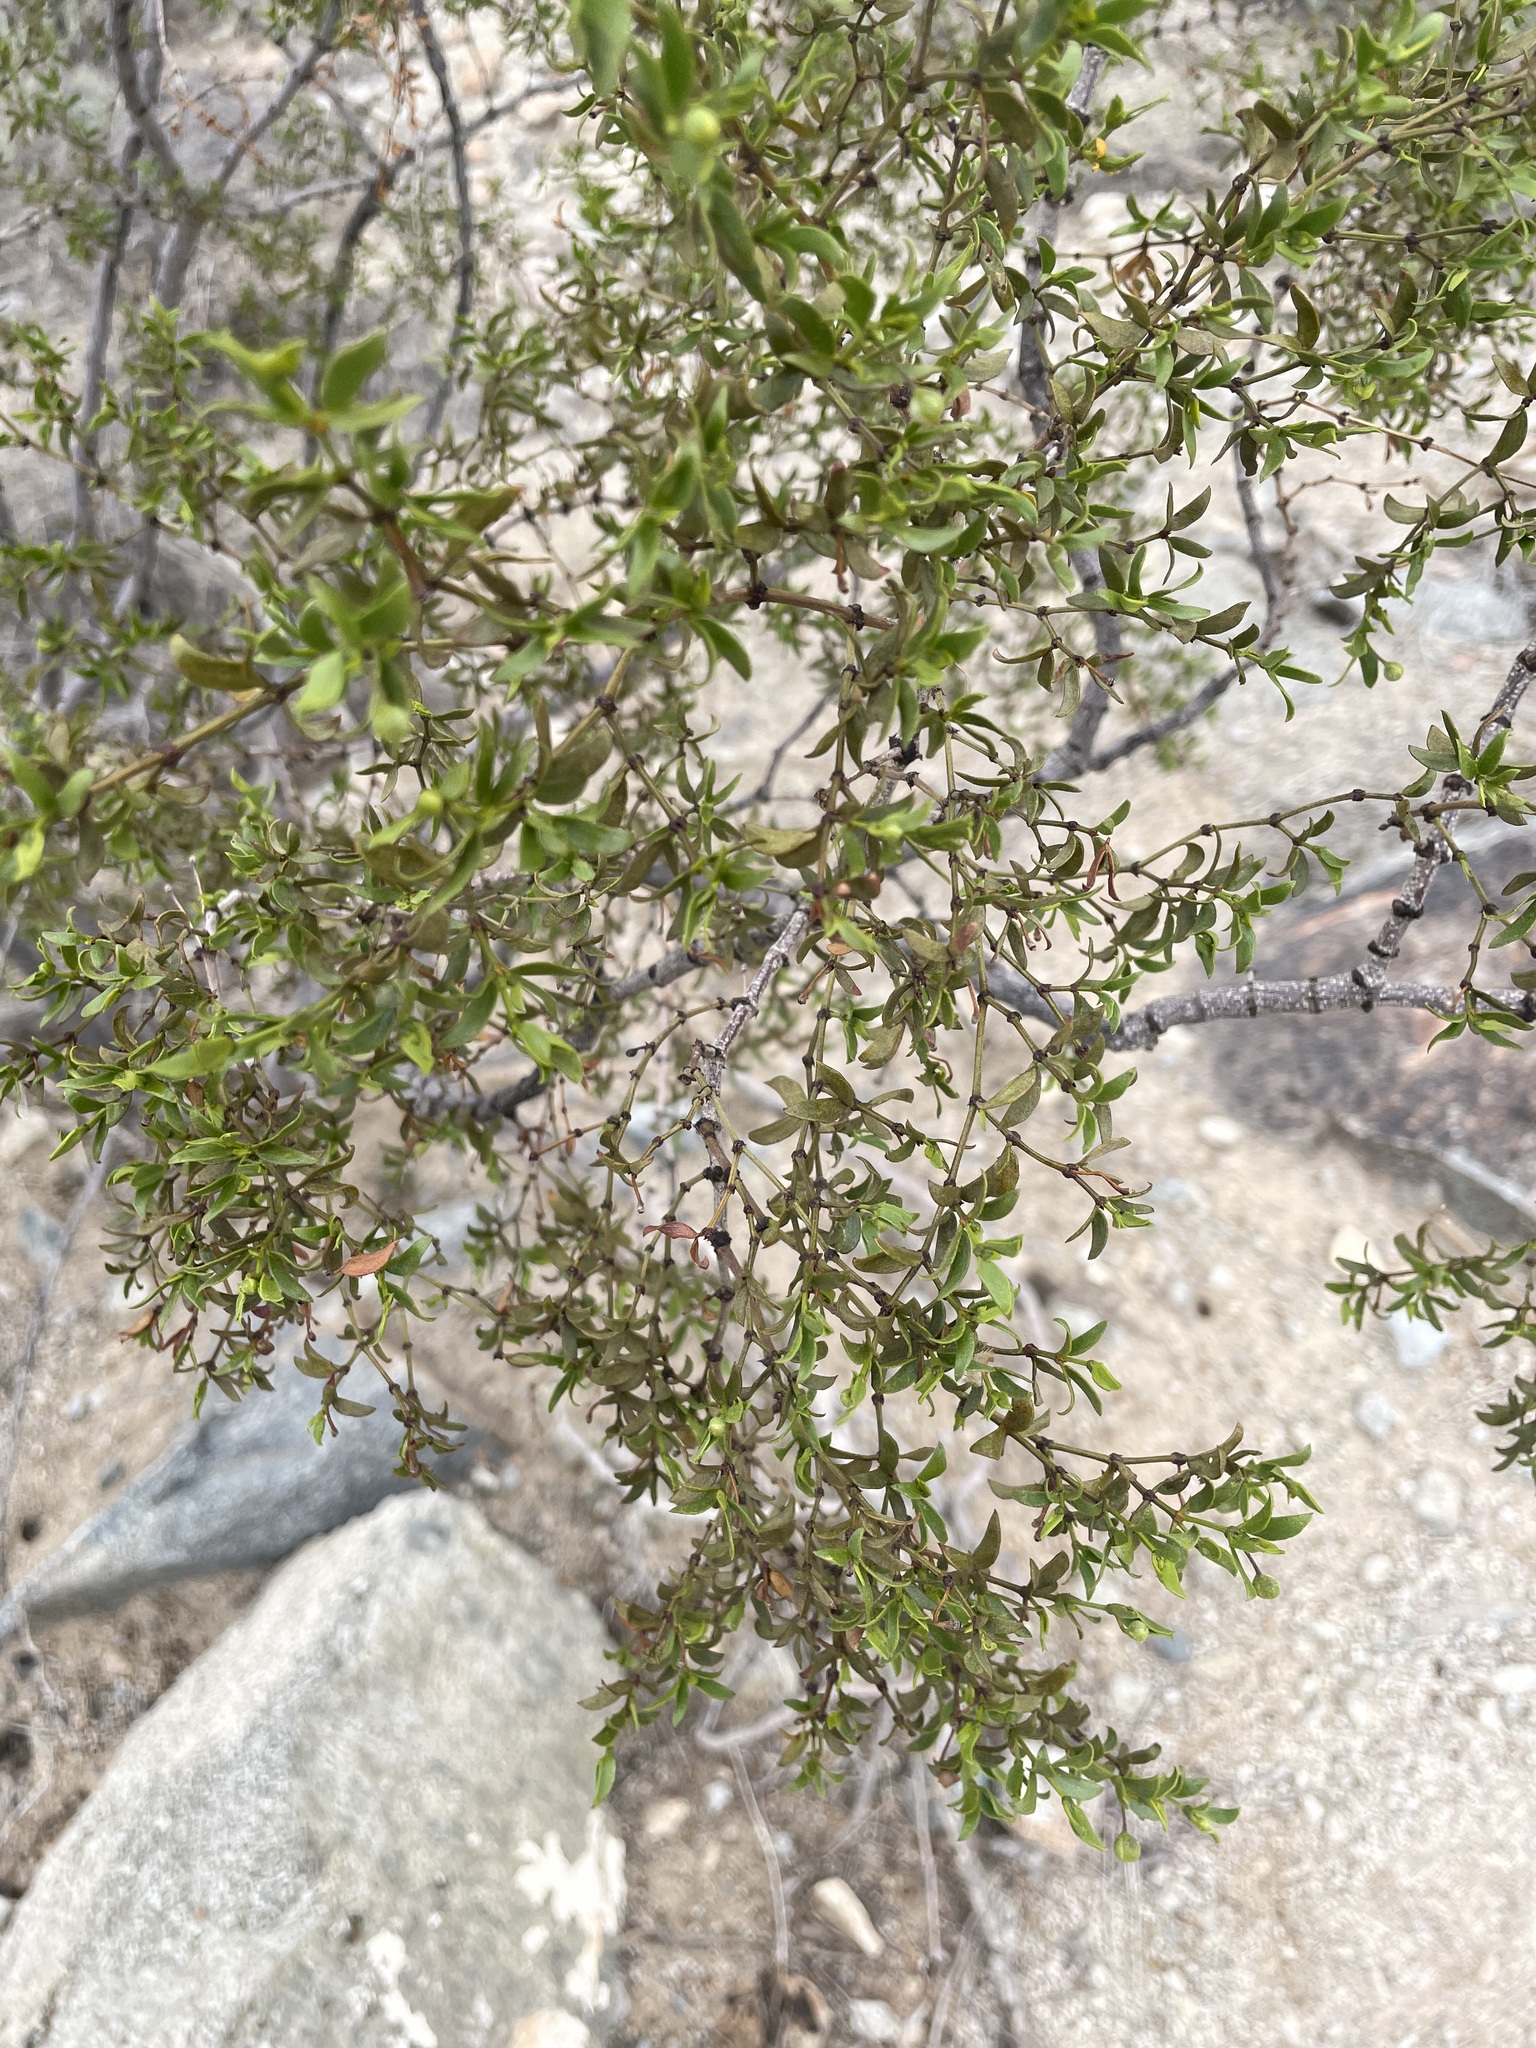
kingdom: Plantae
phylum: Tracheophyta
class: Magnoliopsida
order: Zygophyllales
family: Zygophyllaceae
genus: Larrea
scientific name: Larrea tridentata
